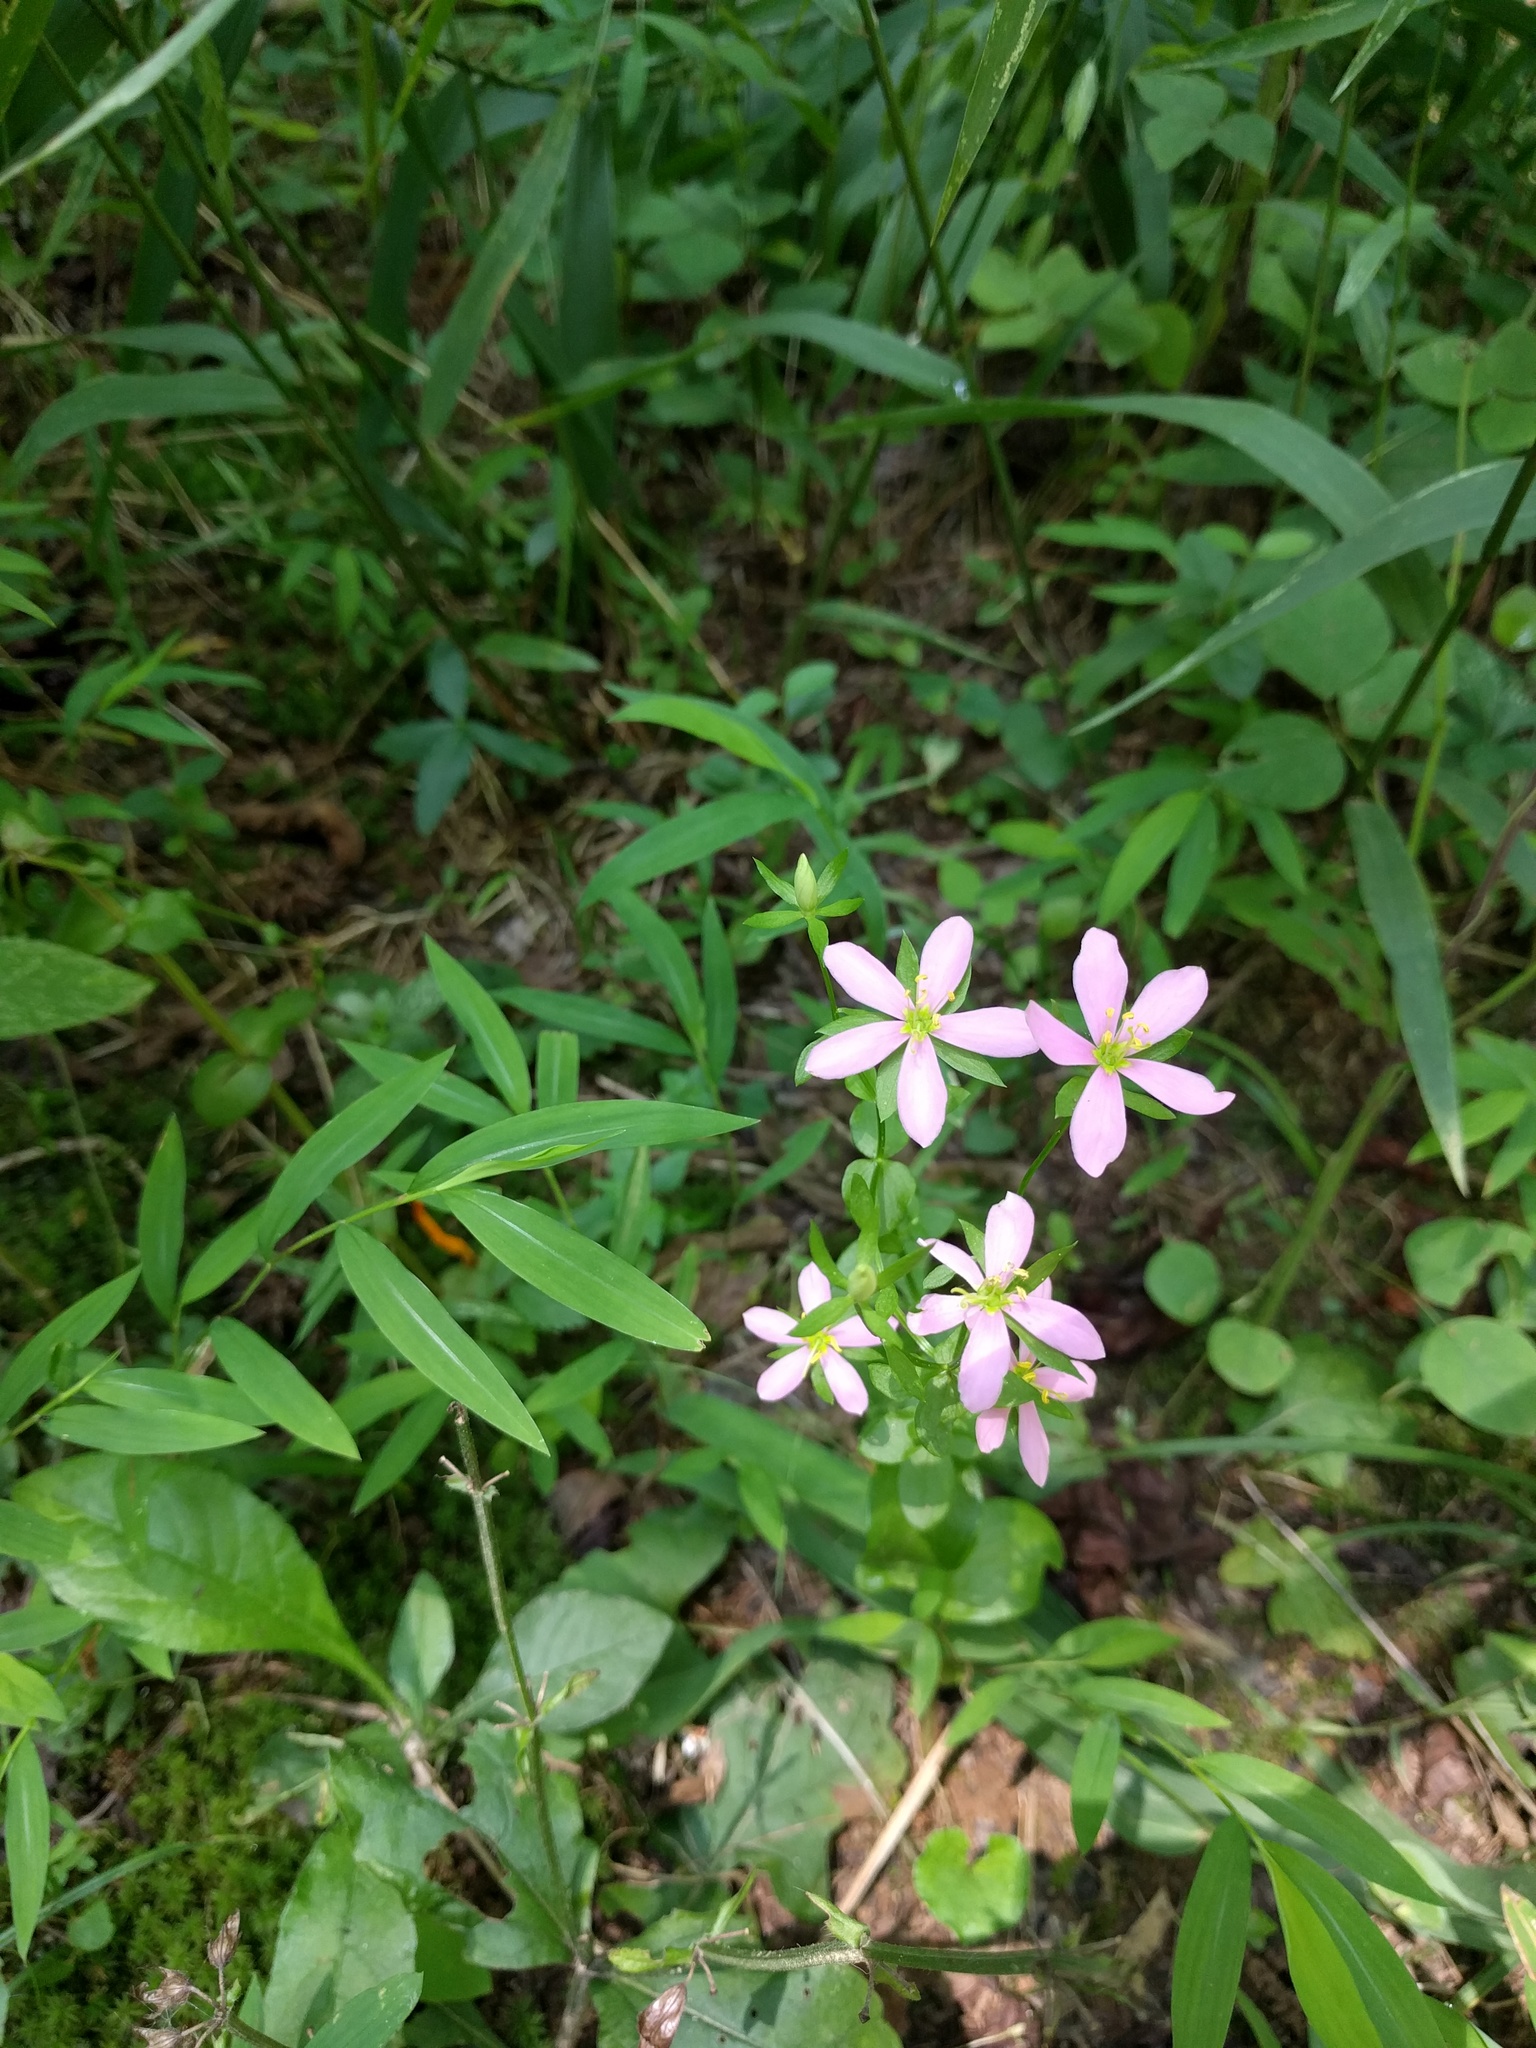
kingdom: Plantae
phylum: Tracheophyta
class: Magnoliopsida
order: Gentianales
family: Gentianaceae
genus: Sabatia
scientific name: Sabatia angularis
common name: Rose-pink
